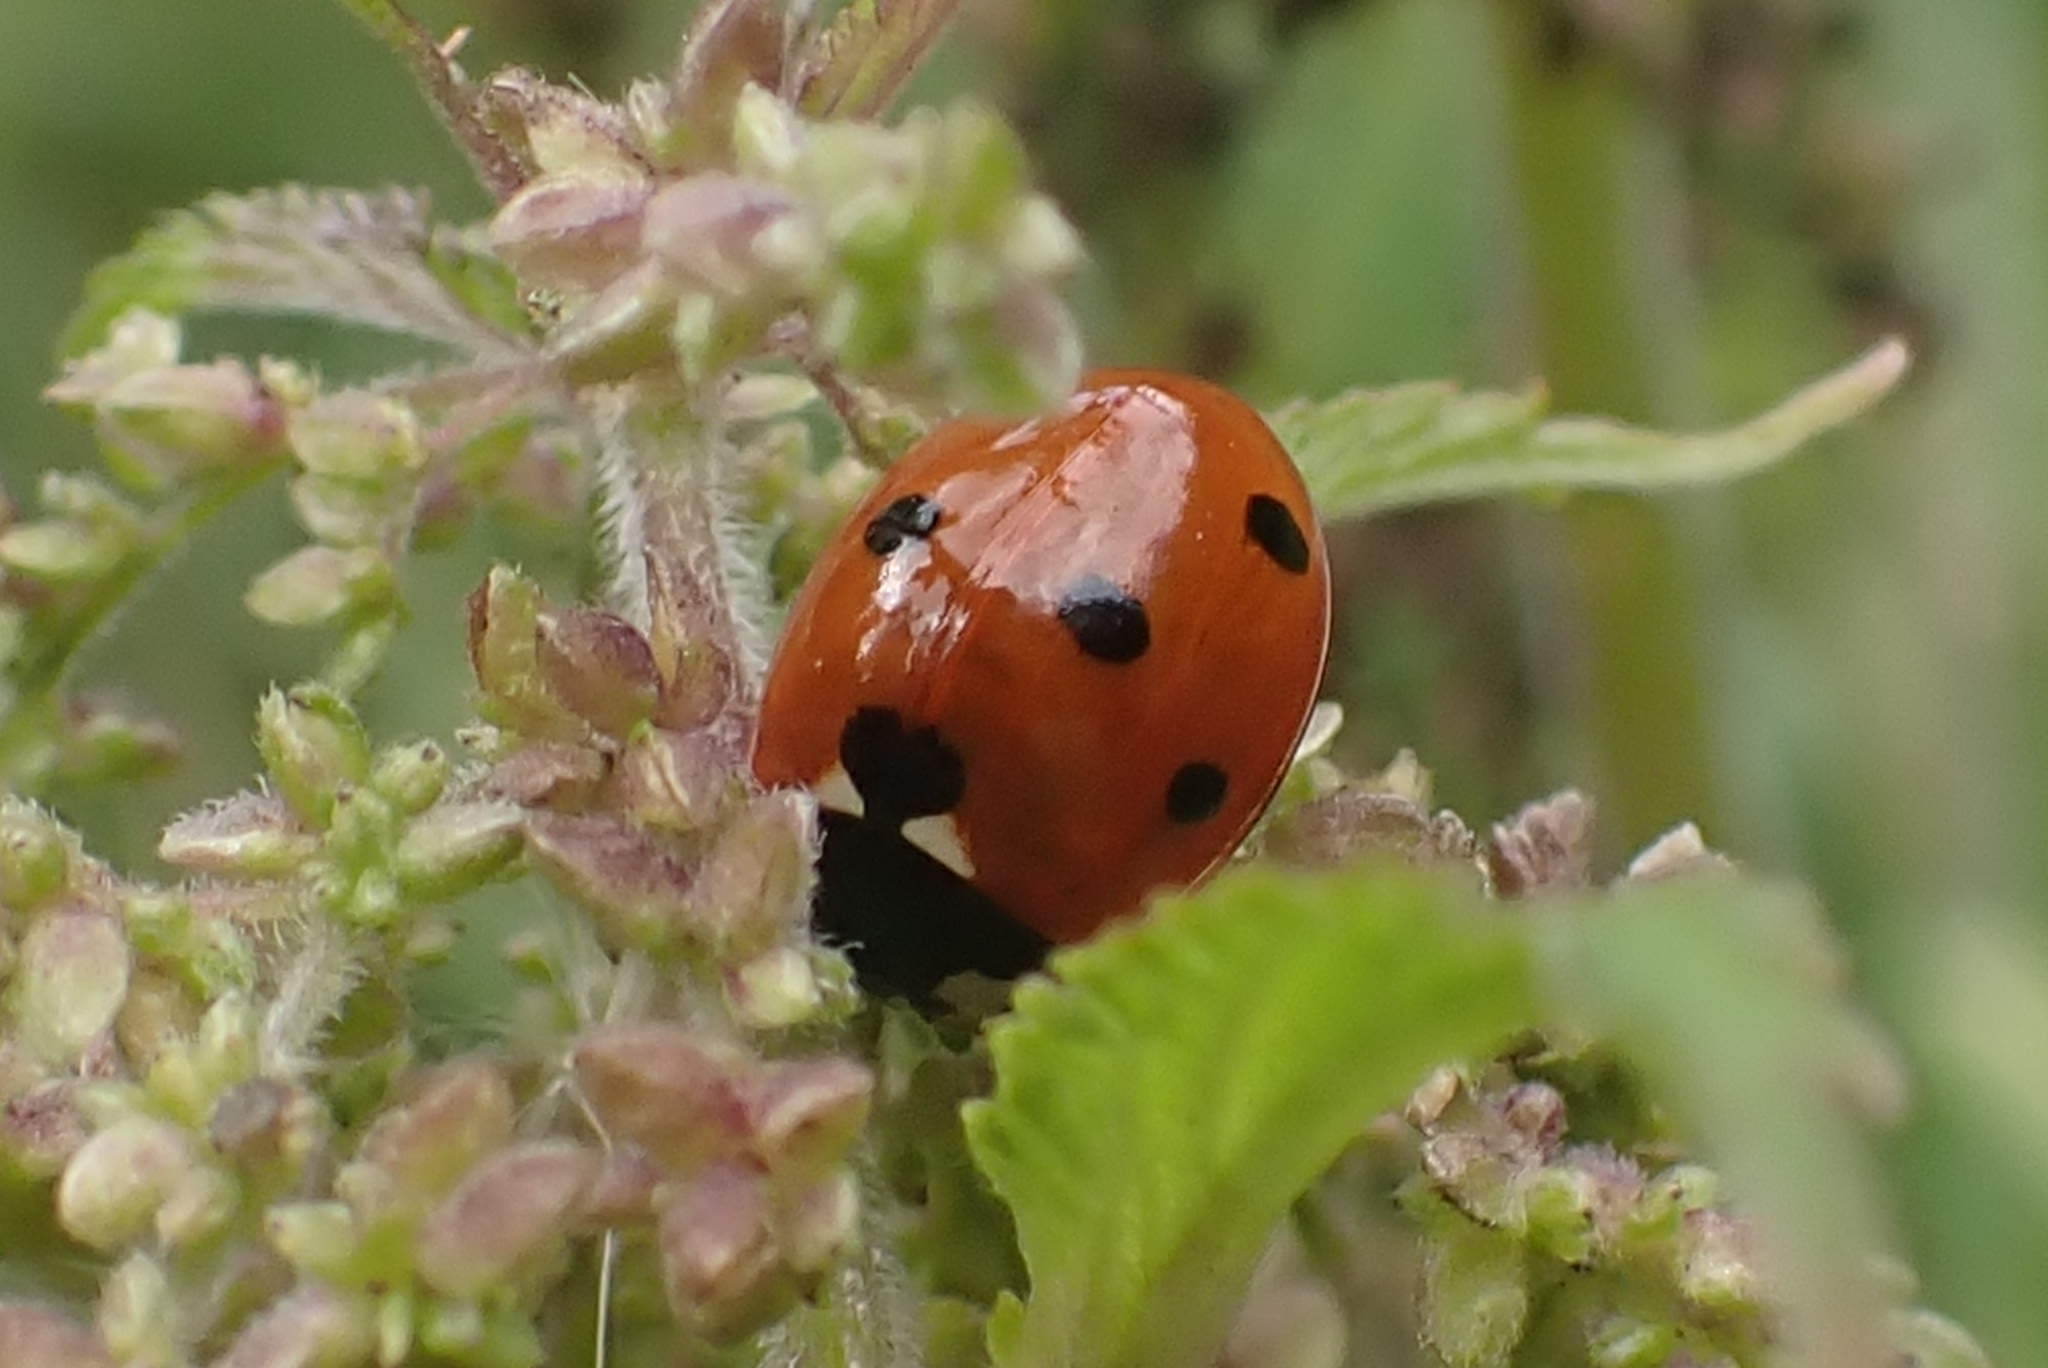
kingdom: Animalia
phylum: Arthropoda
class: Insecta
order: Coleoptera
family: Coccinellidae
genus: Coccinella
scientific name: Coccinella septempunctata
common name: Sevenspotted lady beetle
